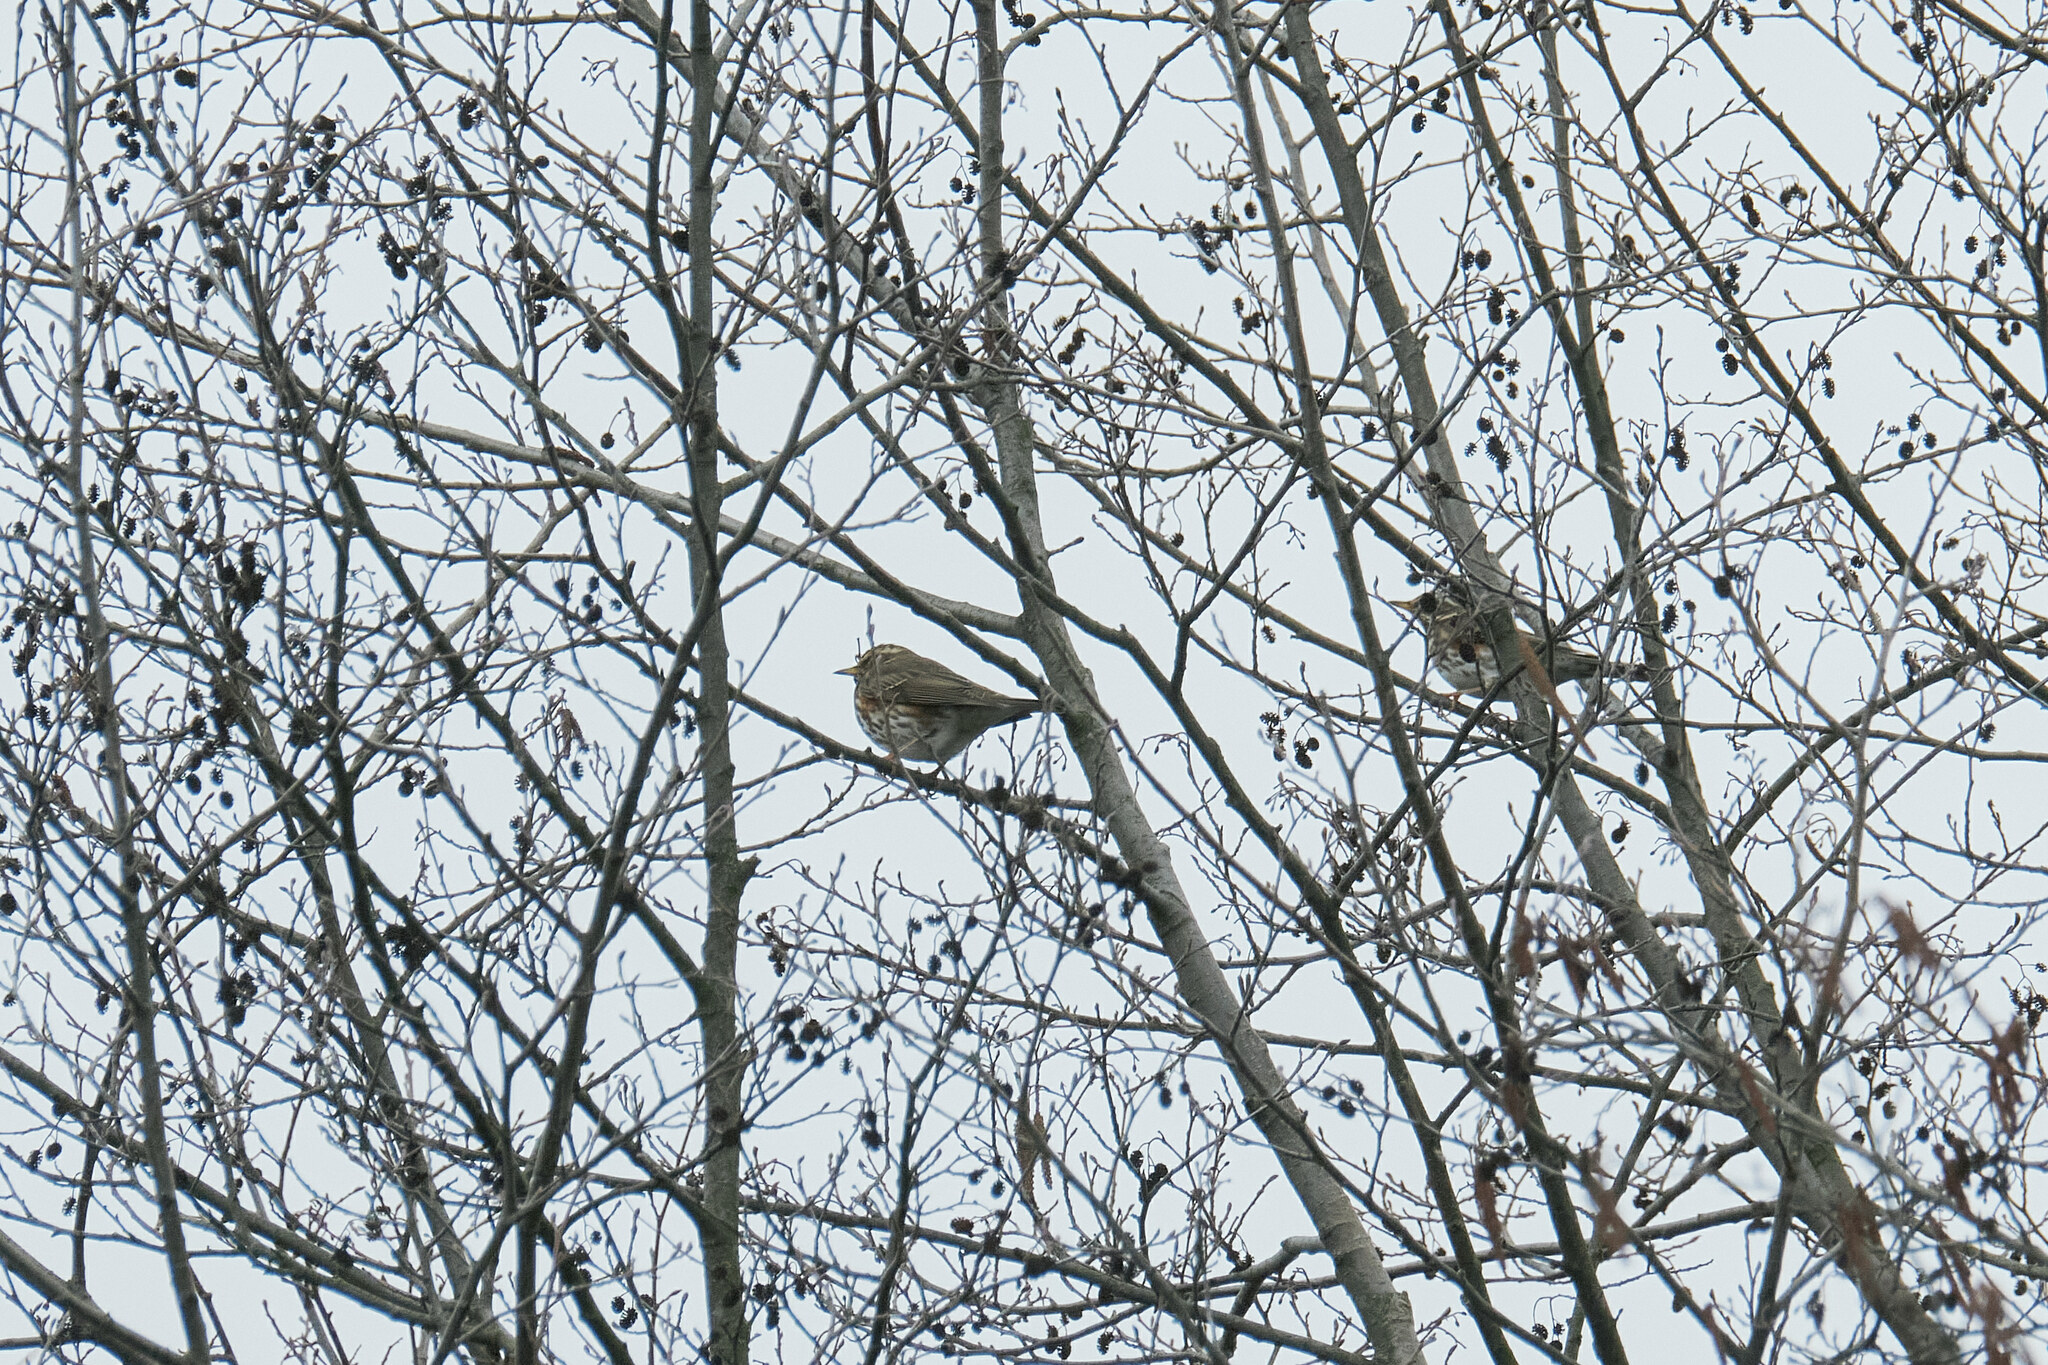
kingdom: Animalia
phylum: Chordata
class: Aves
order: Passeriformes
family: Turdidae
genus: Turdus
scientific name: Turdus iliacus
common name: Redwing
